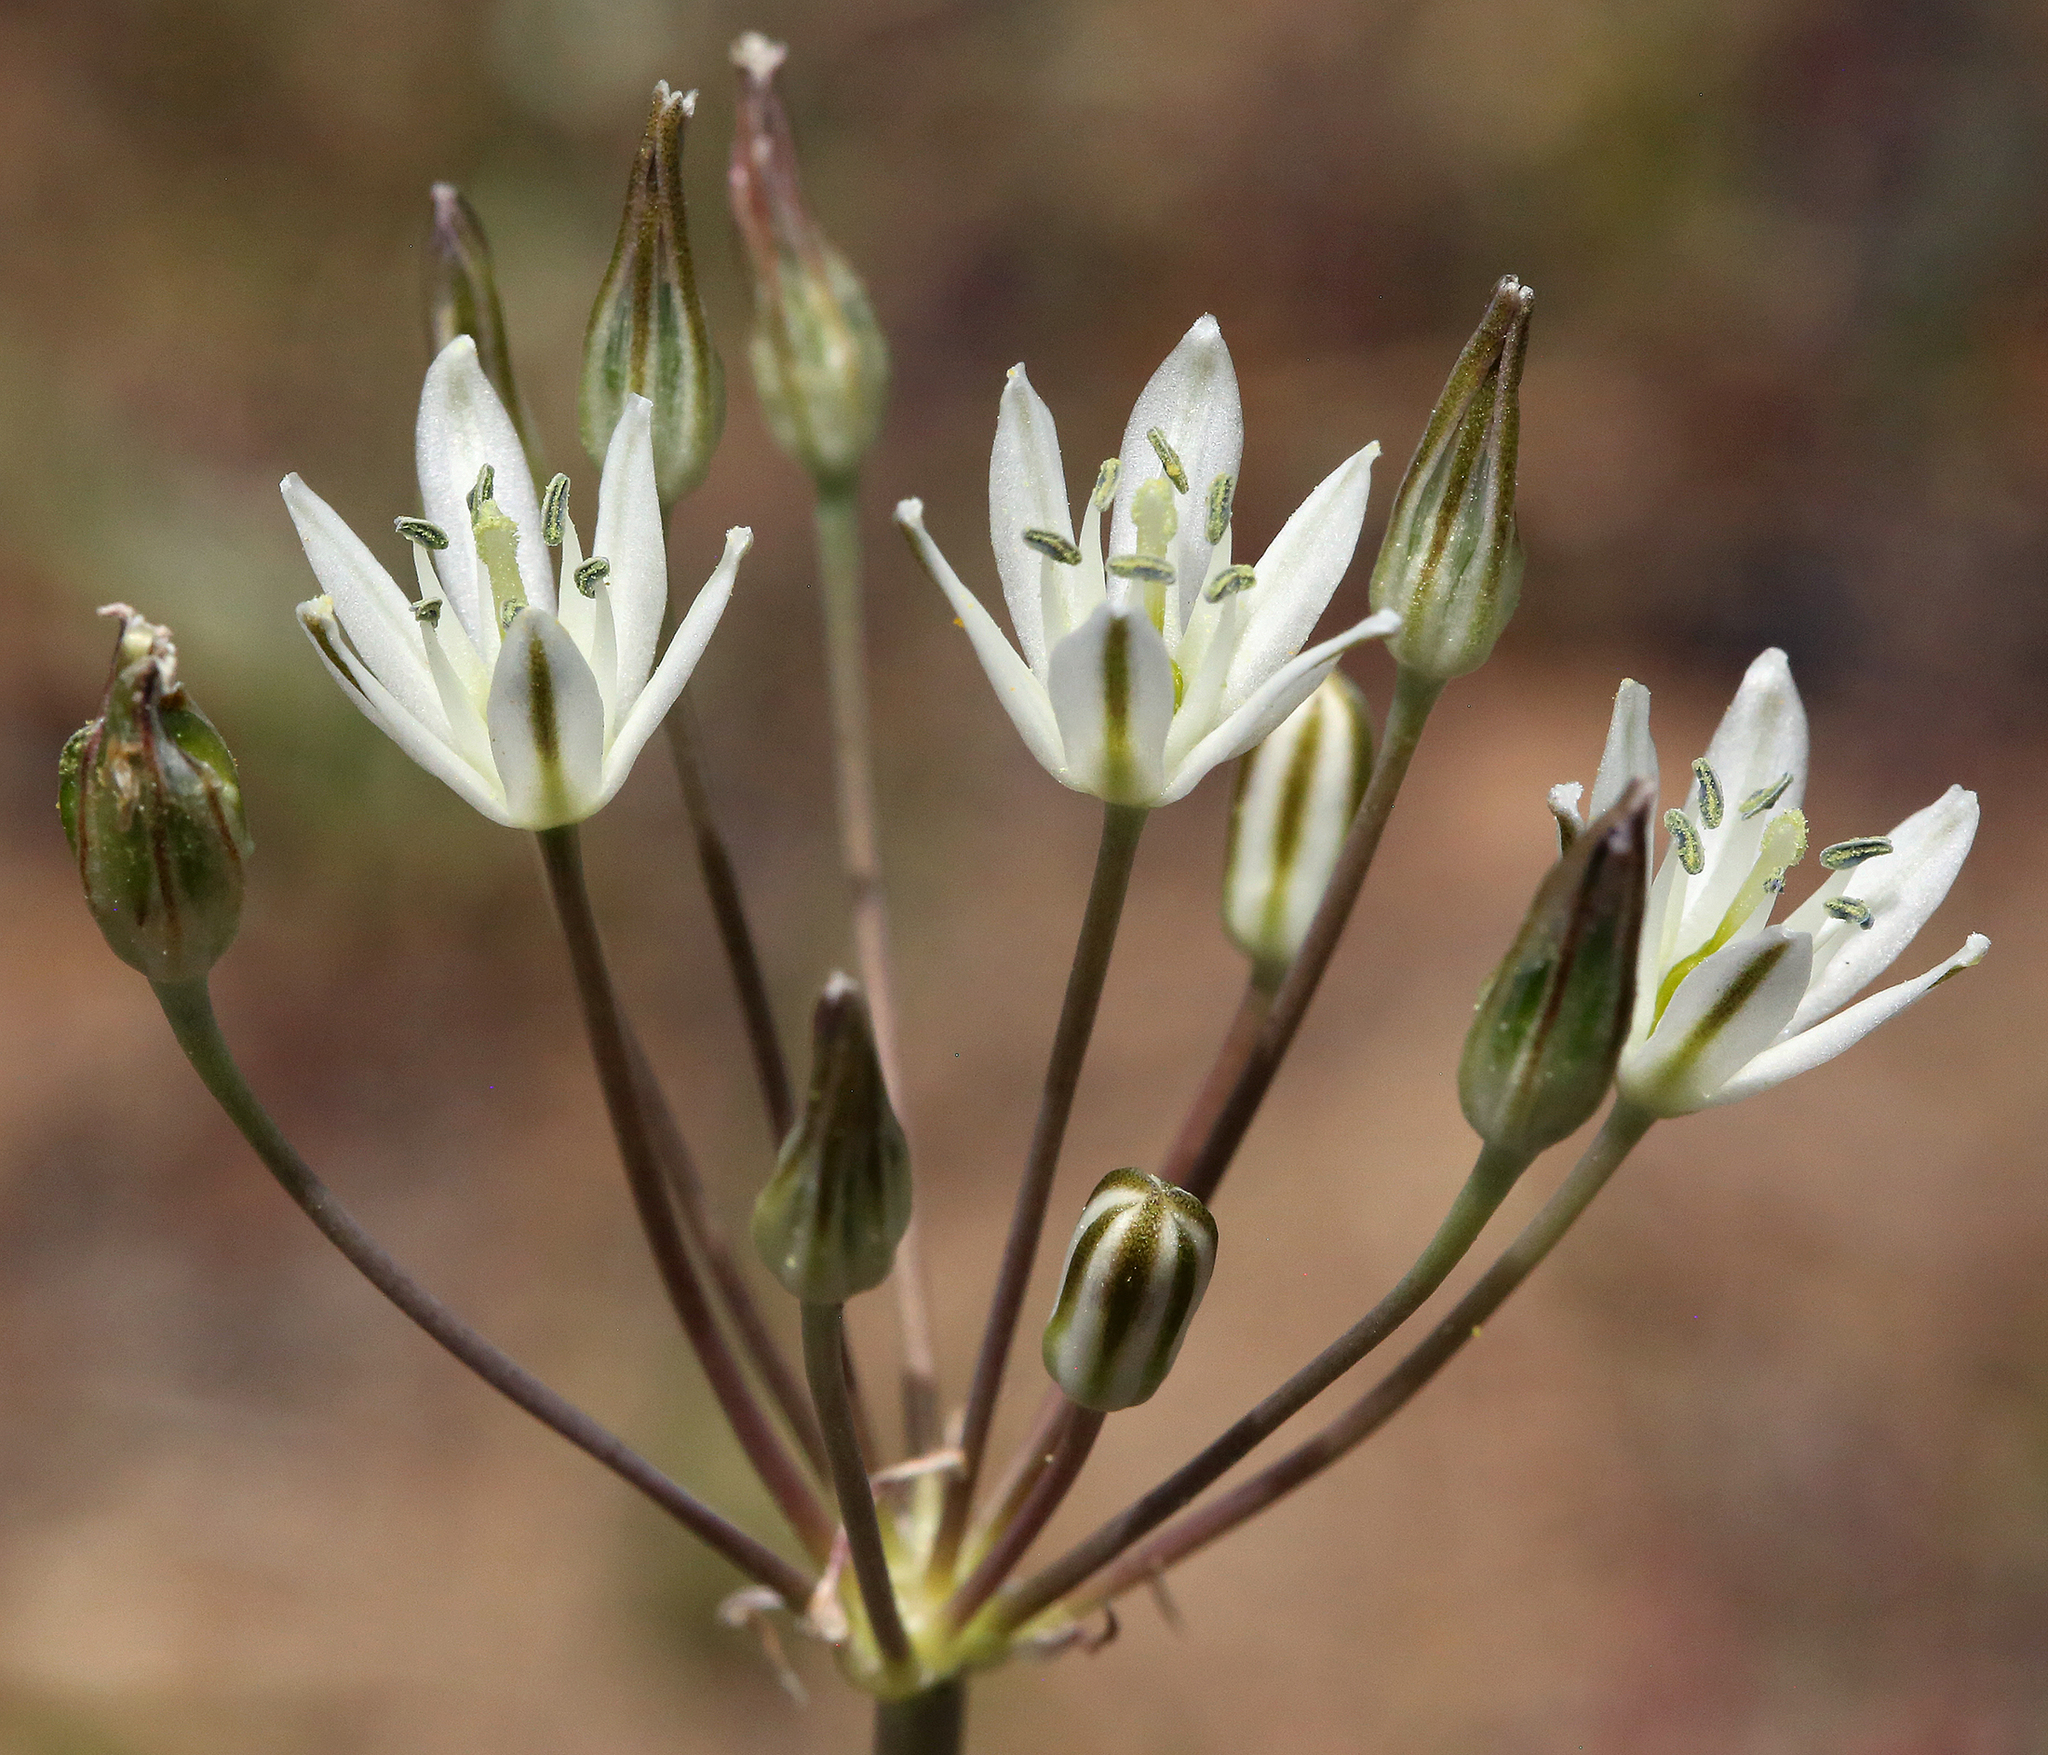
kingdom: Plantae
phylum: Tracheophyta
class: Liliopsida
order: Asparagales
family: Asparagaceae
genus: Muilla
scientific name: Muilla transmontana
